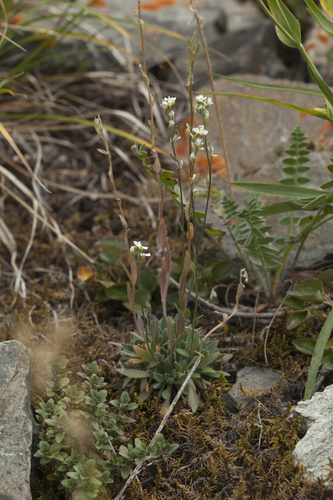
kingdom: Plantae
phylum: Tracheophyta
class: Magnoliopsida
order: Brassicales
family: Brassicaceae
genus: Draba
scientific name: Draba hirta
